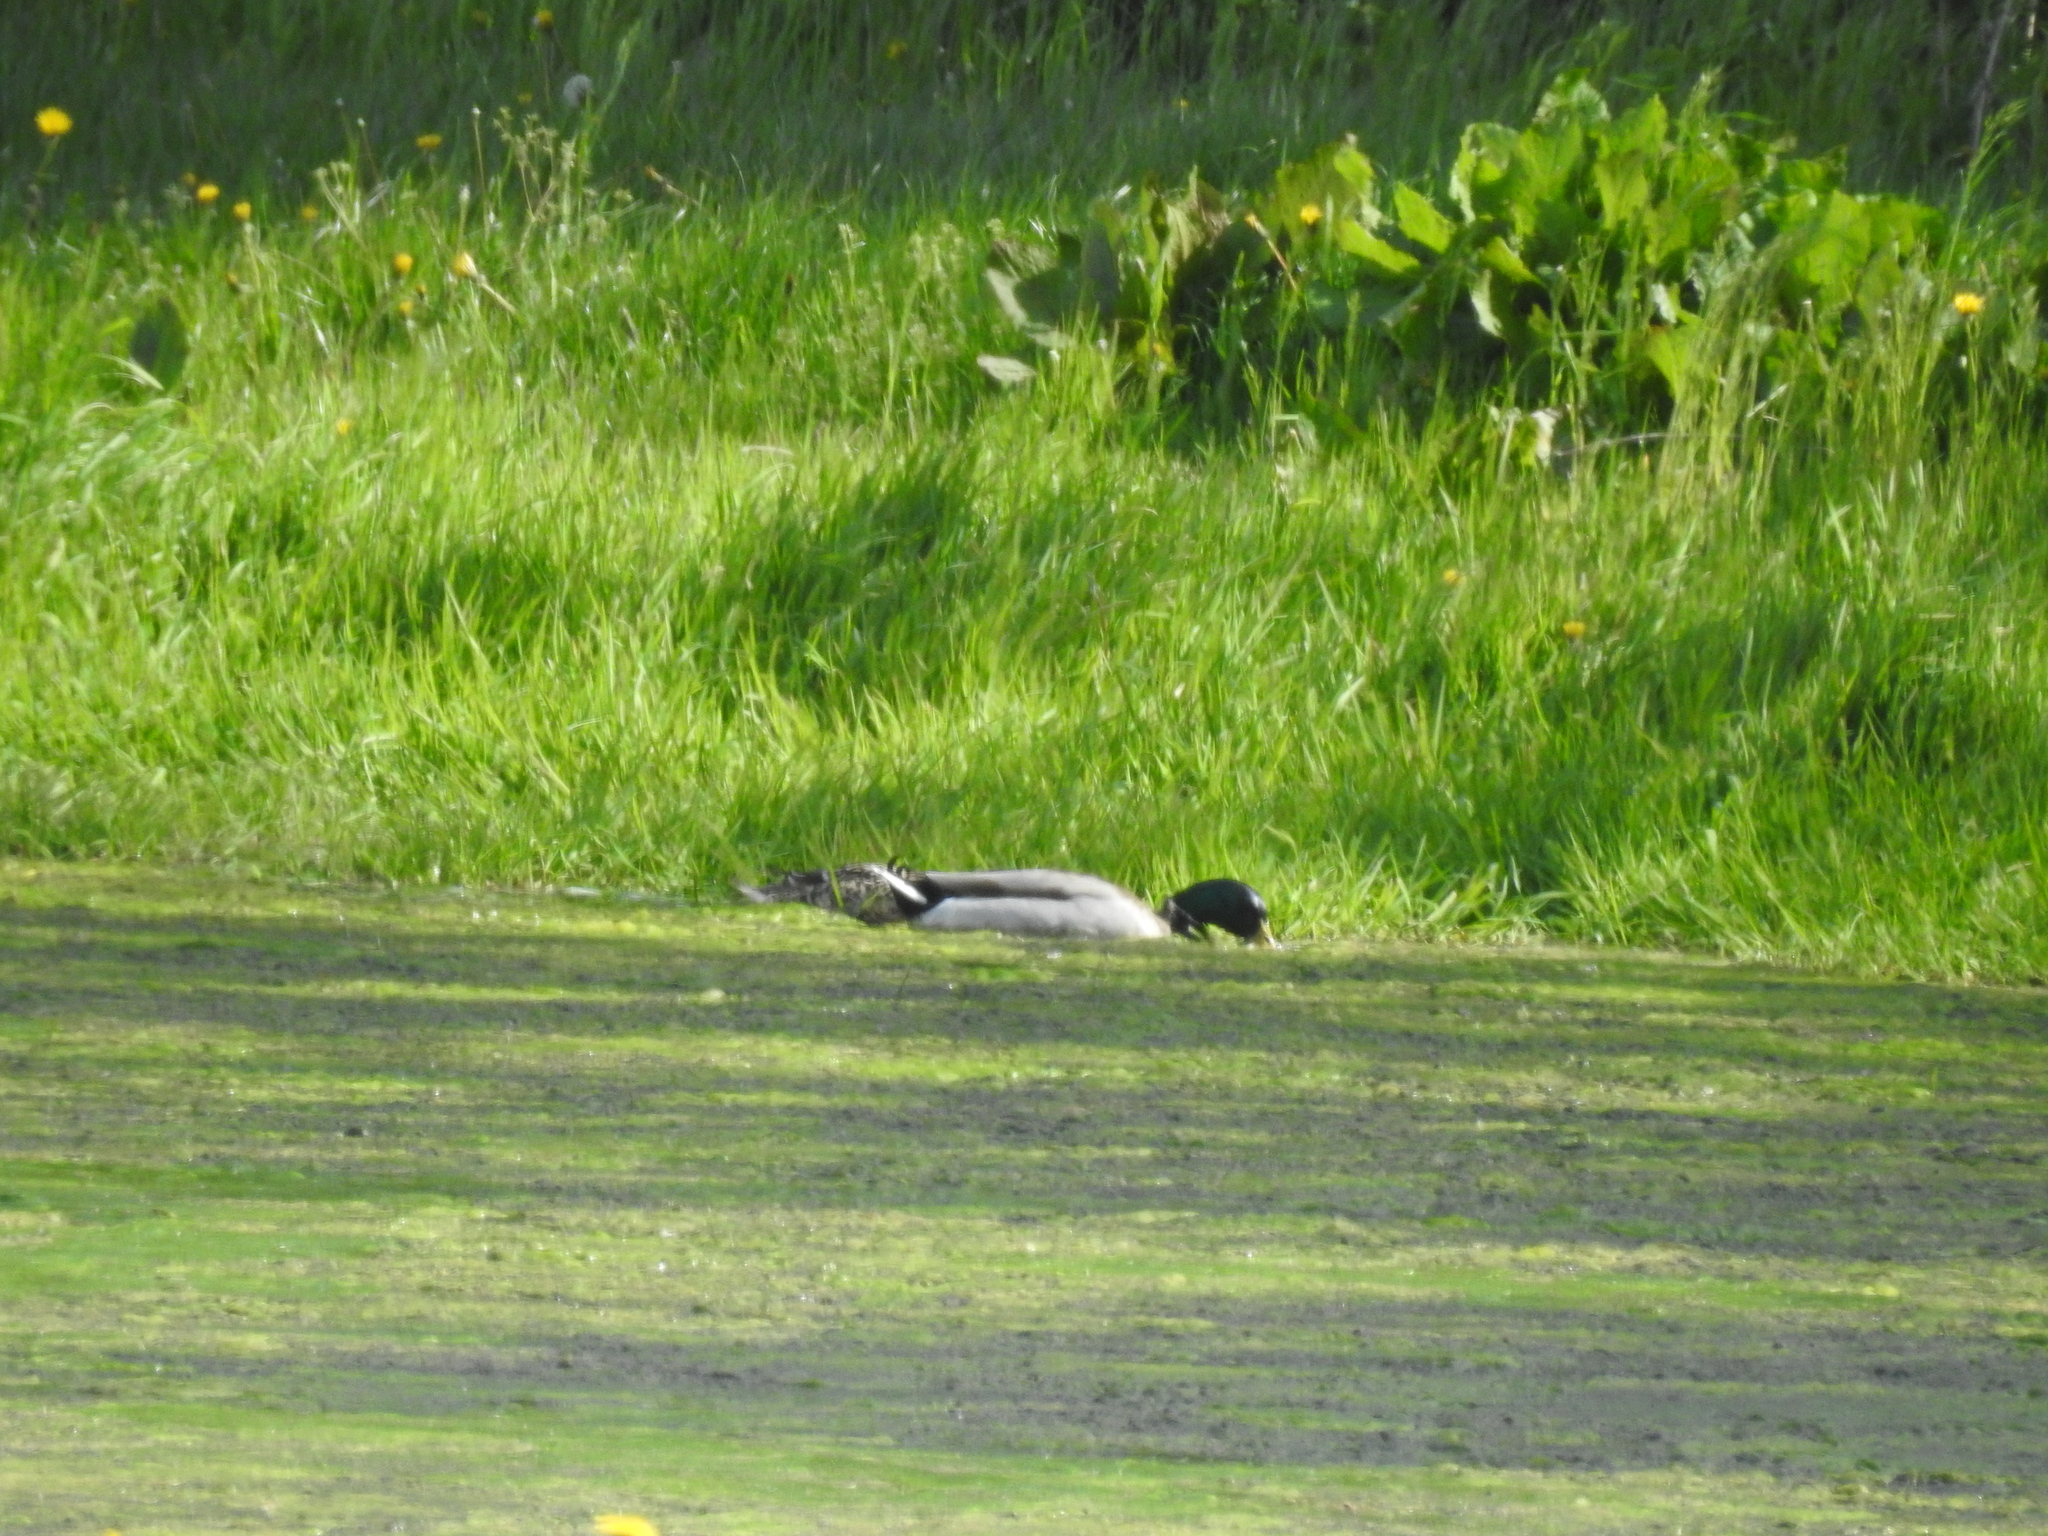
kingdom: Animalia
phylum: Chordata
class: Aves
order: Anseriformes
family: Anatidae
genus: Anas
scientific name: Anas platyrhynchos
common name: Mallard
